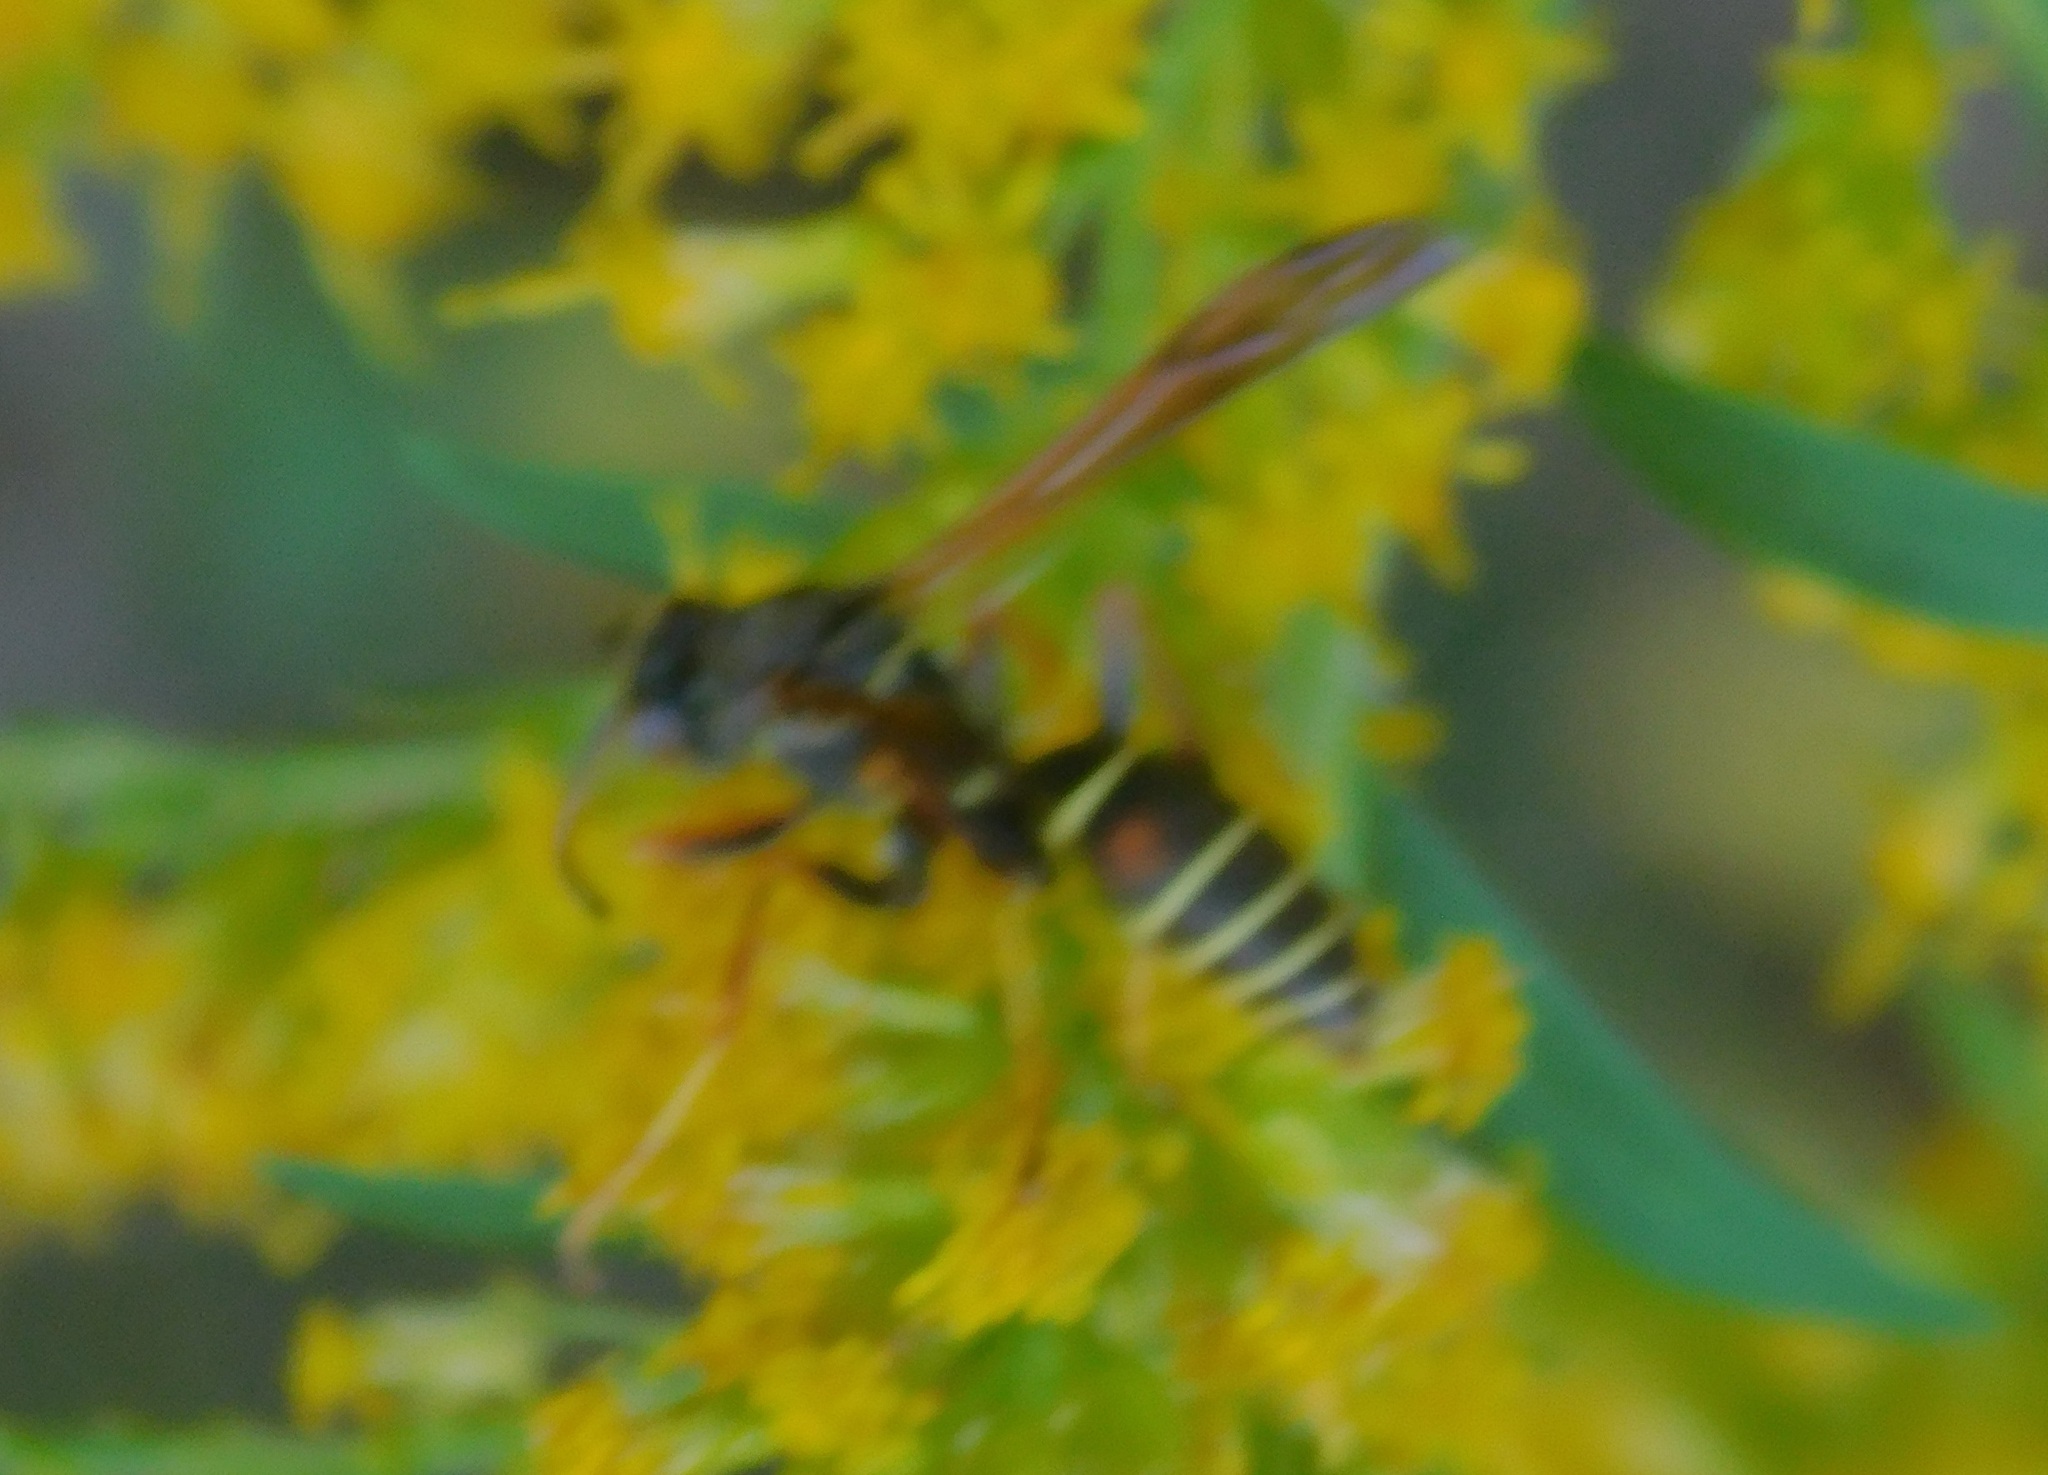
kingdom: Animalia
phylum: Arthropoda
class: Insecta
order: Hymenoptera
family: Eumenidae
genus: Polistes
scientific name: Polistes fuscatus
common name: Dark paper wasp
